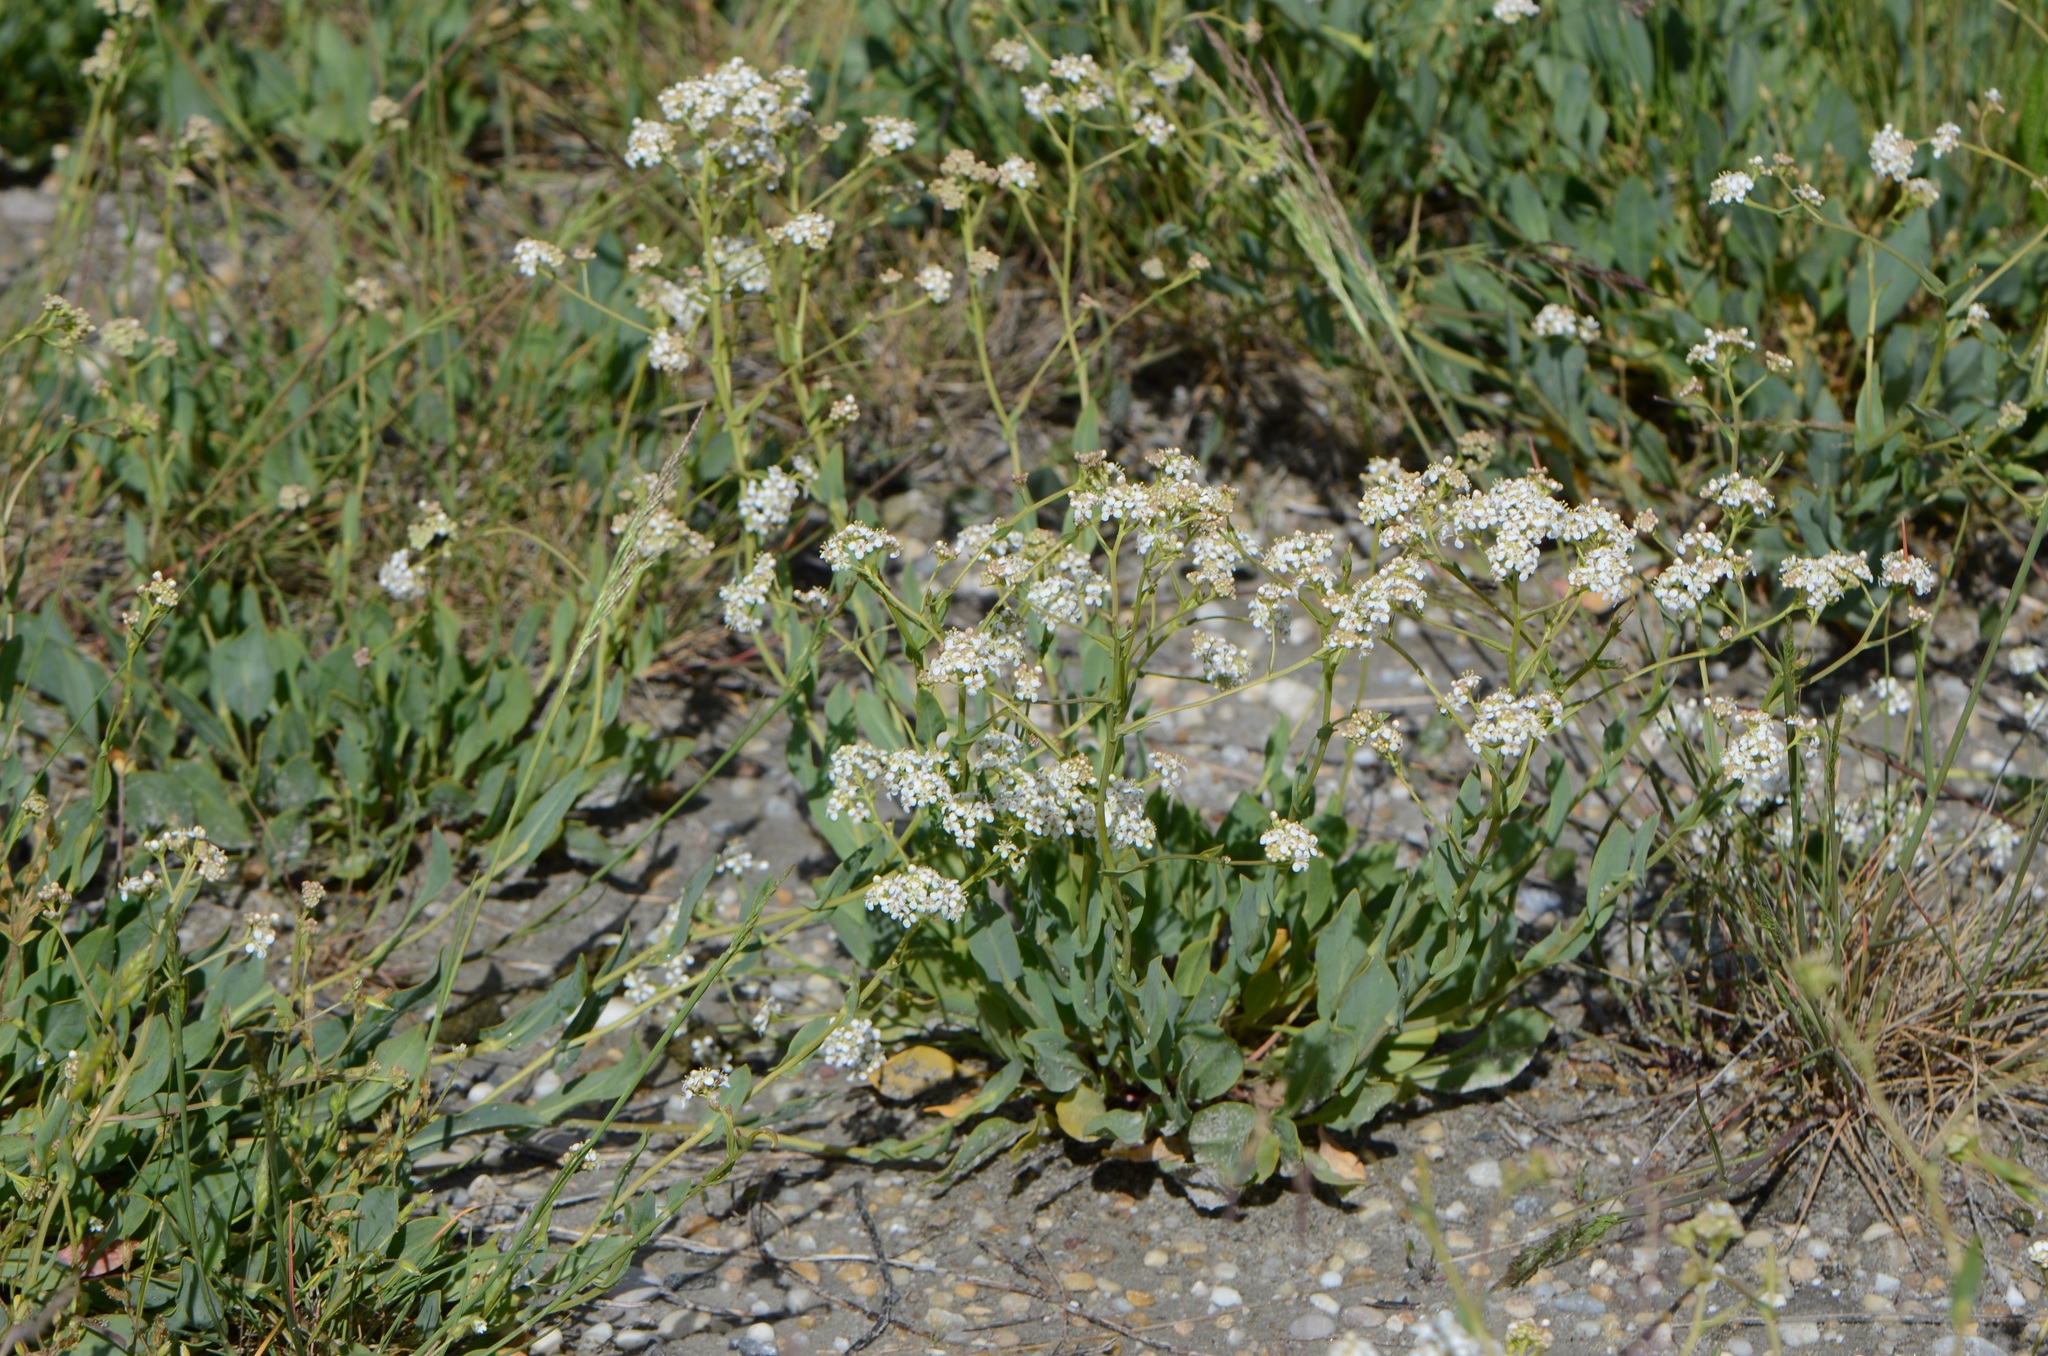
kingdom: Plantae
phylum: Tracheophyta
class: Magnoliopsida
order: Brassicales
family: Brassicaceae
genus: Lepidium
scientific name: Lepidium cartilagineum
